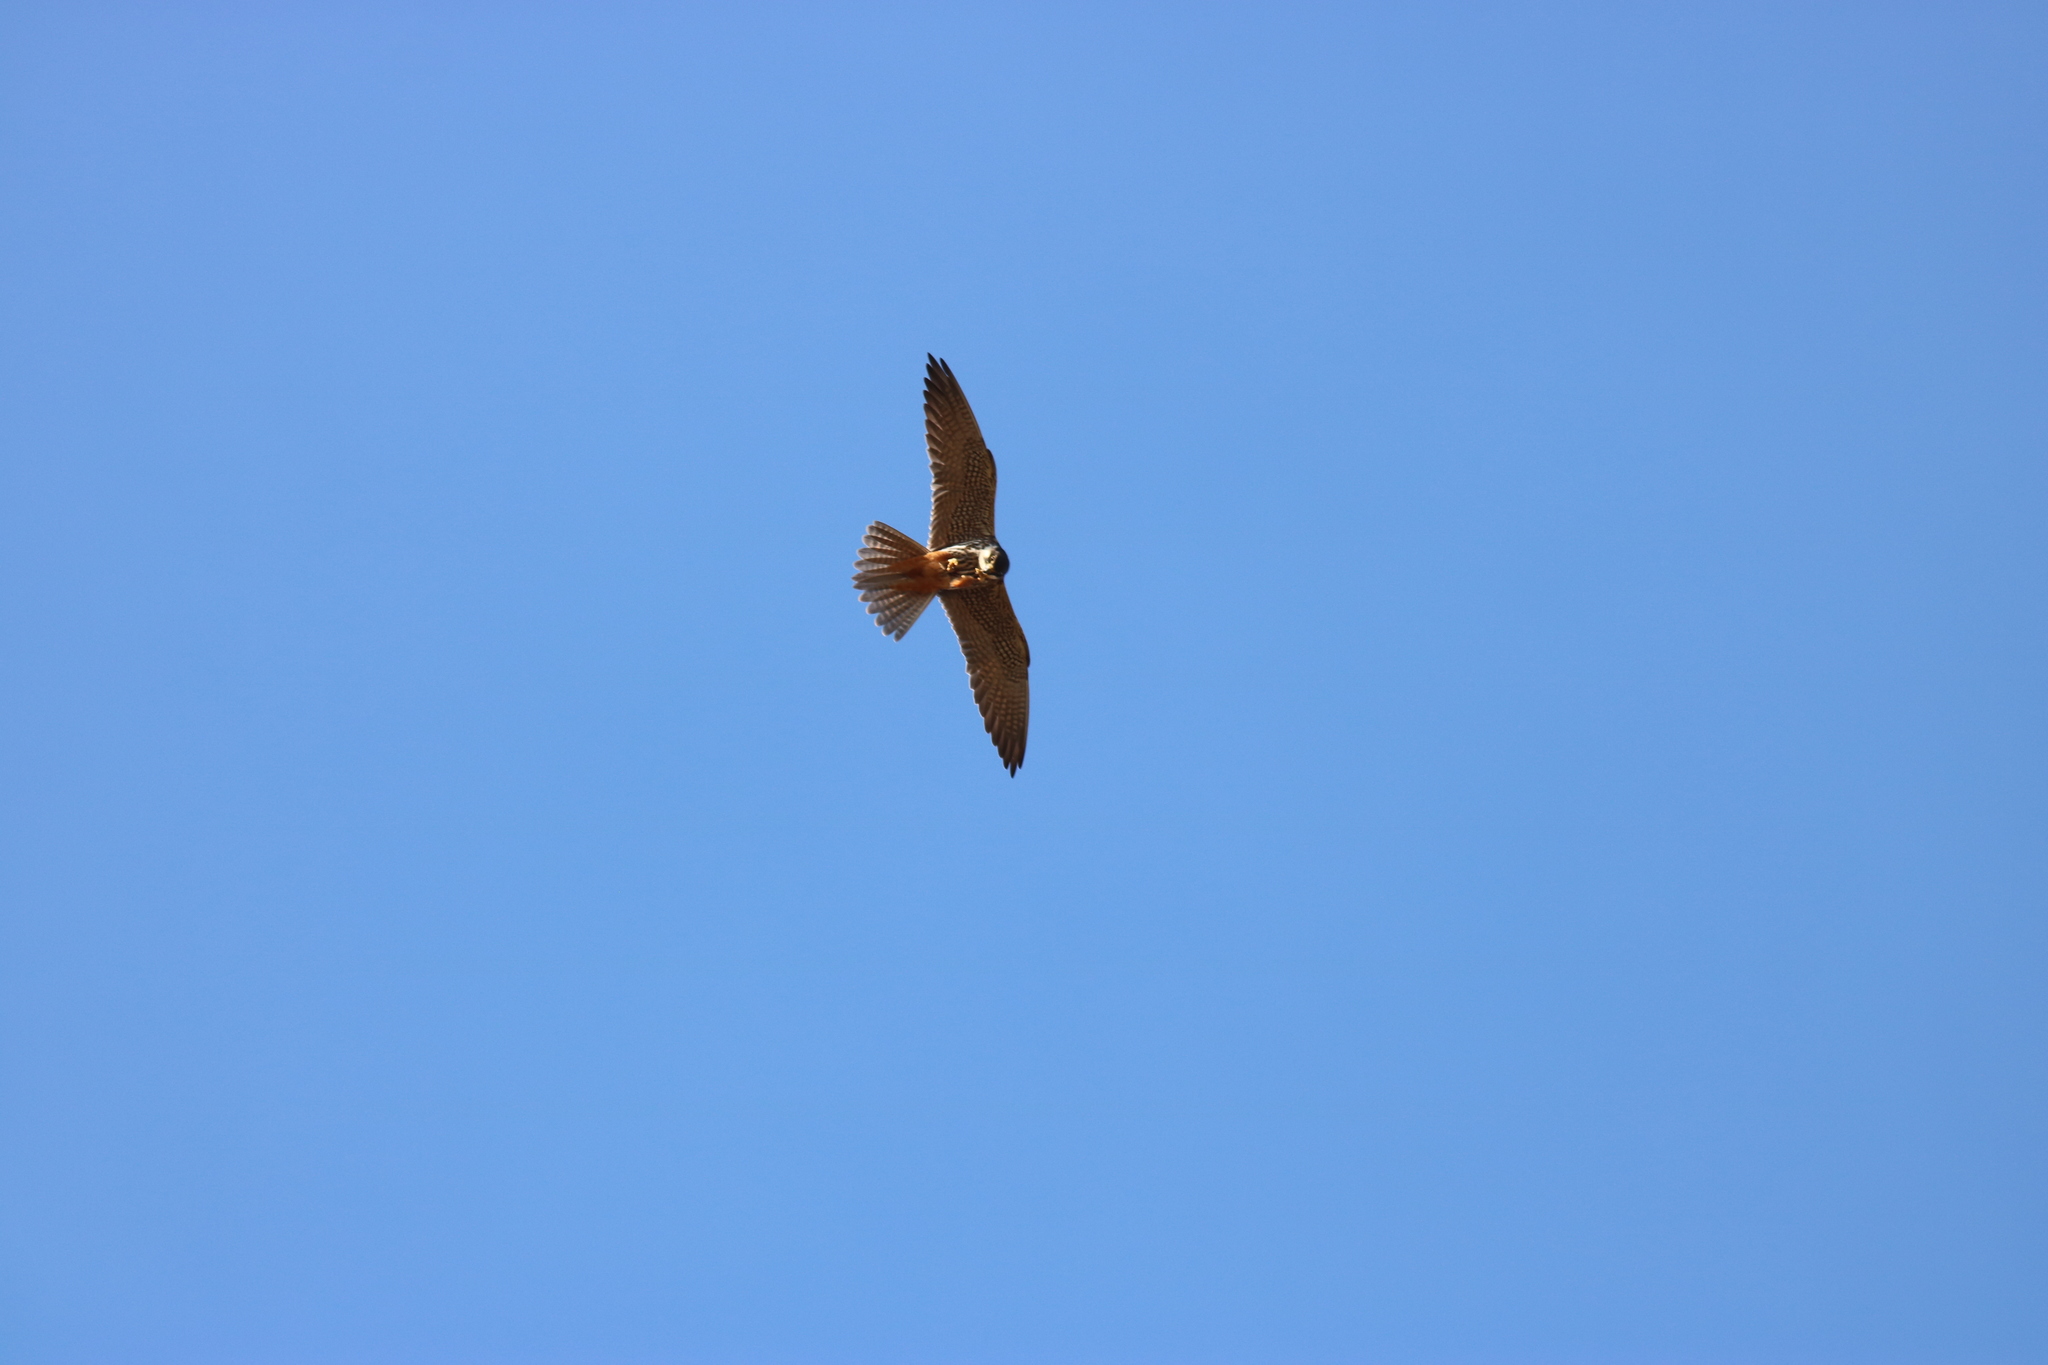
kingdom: Animalia
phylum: Chordata
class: Aves
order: Falconiformes
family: Falconidae
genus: Falco
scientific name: Falco subbuteo
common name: Eurasian hobby
